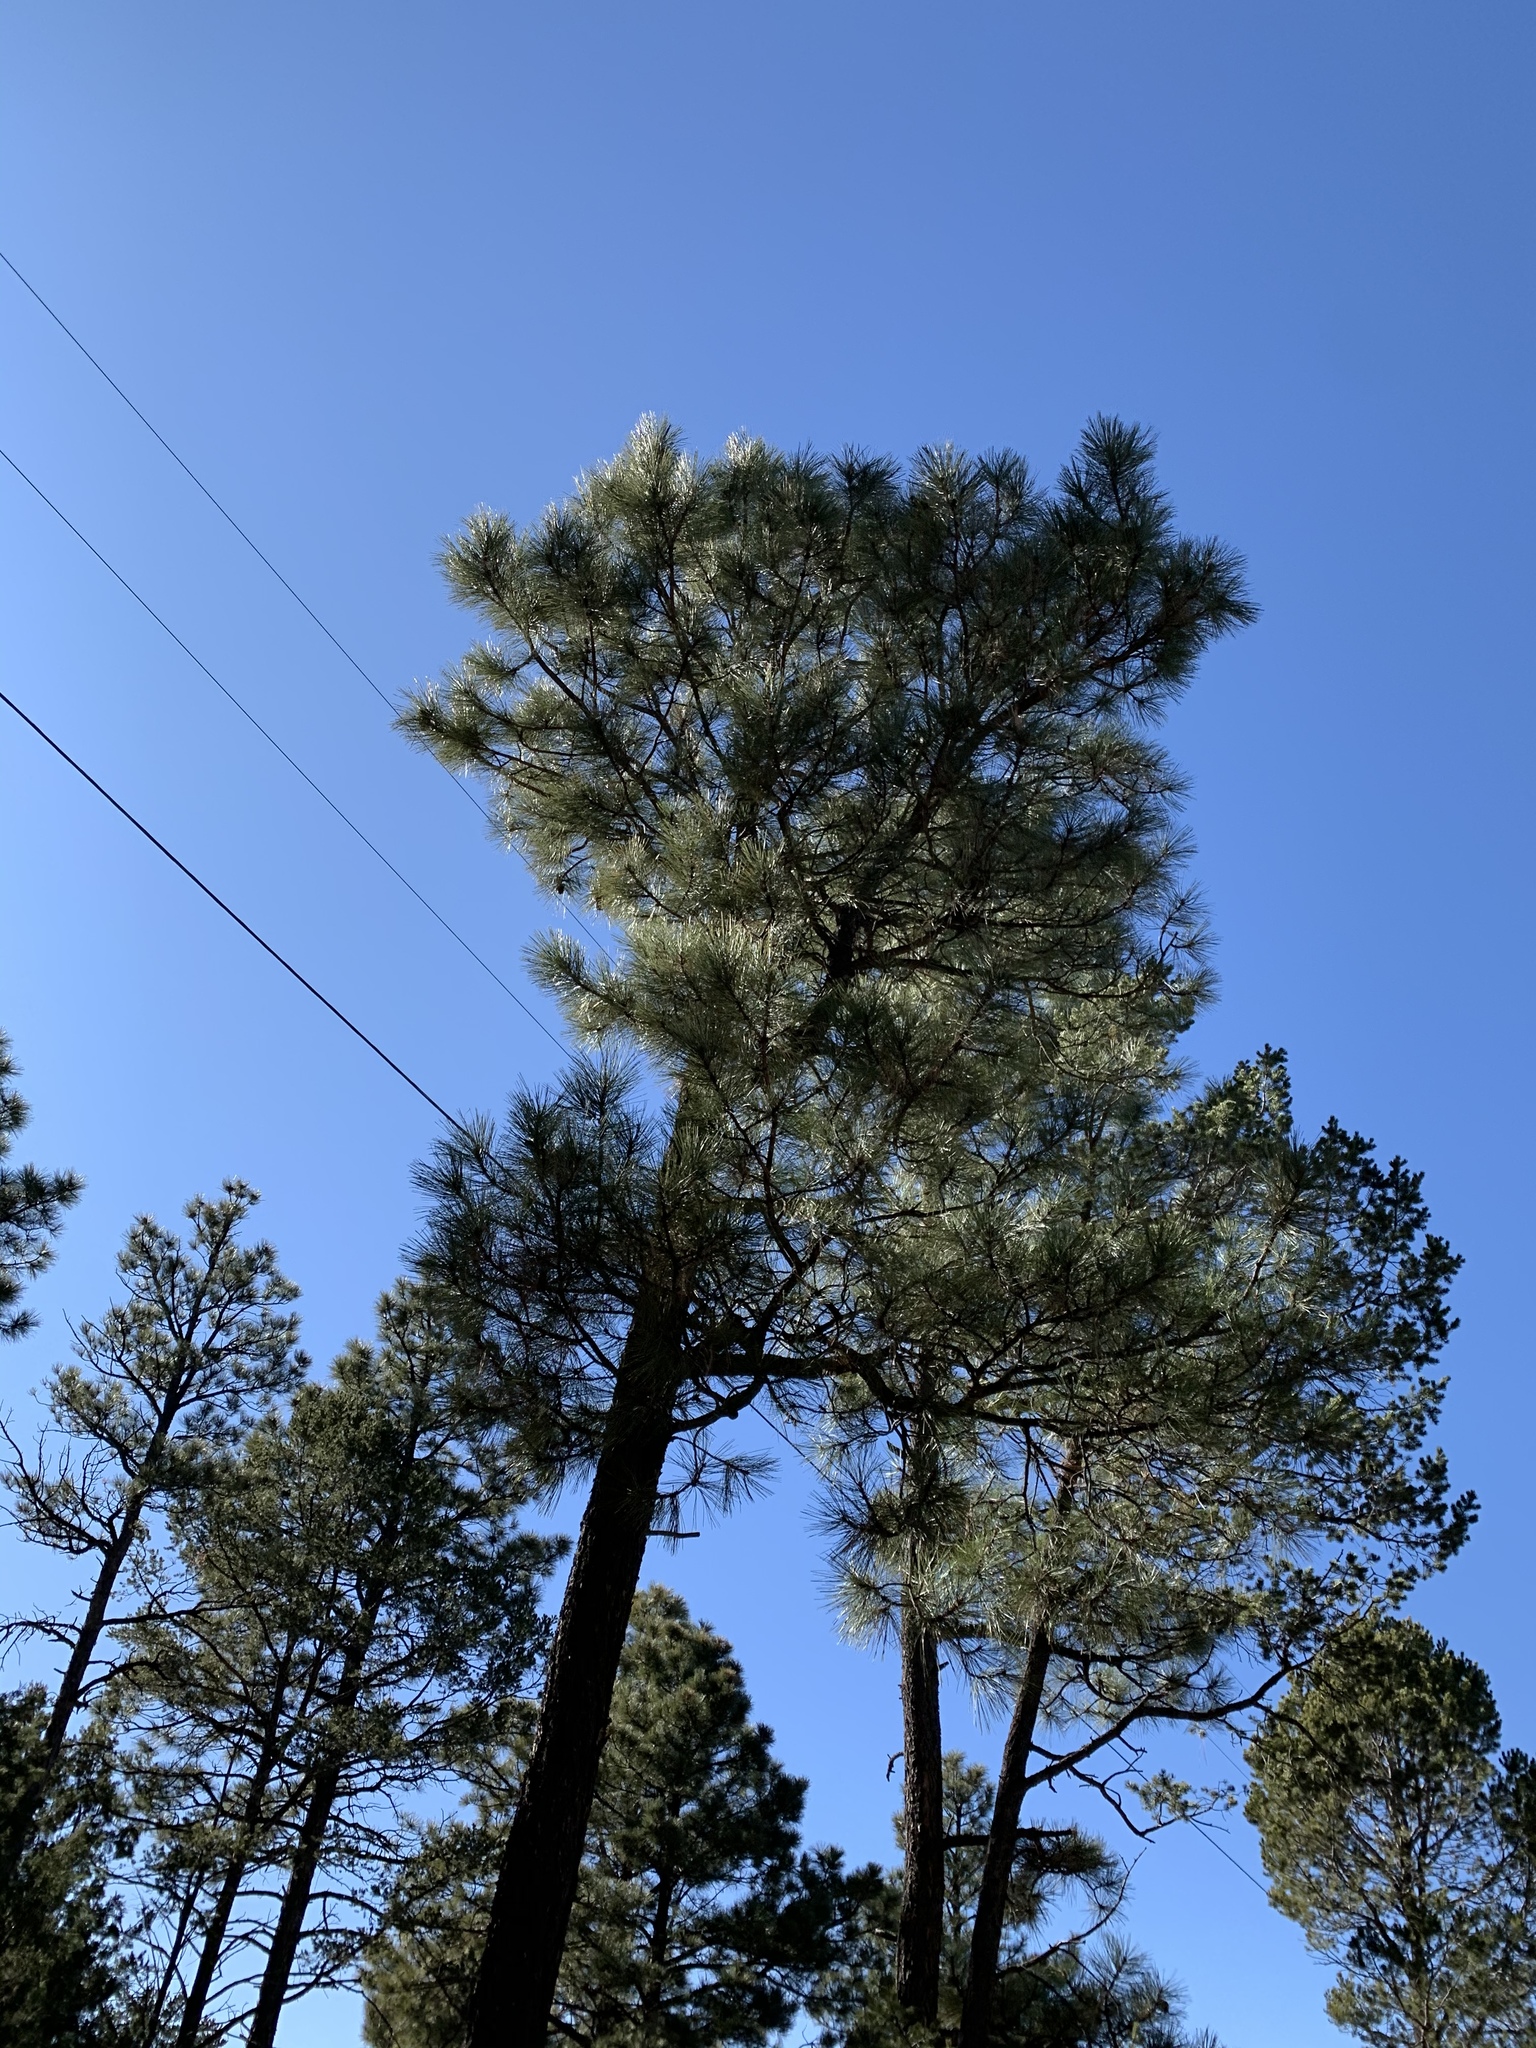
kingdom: Plantae
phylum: Tracheophyta
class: Pinopsida
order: Pinales
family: Pinaceae
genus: Pinus
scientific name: Pinus ponderosa
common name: Western yellow-pine
